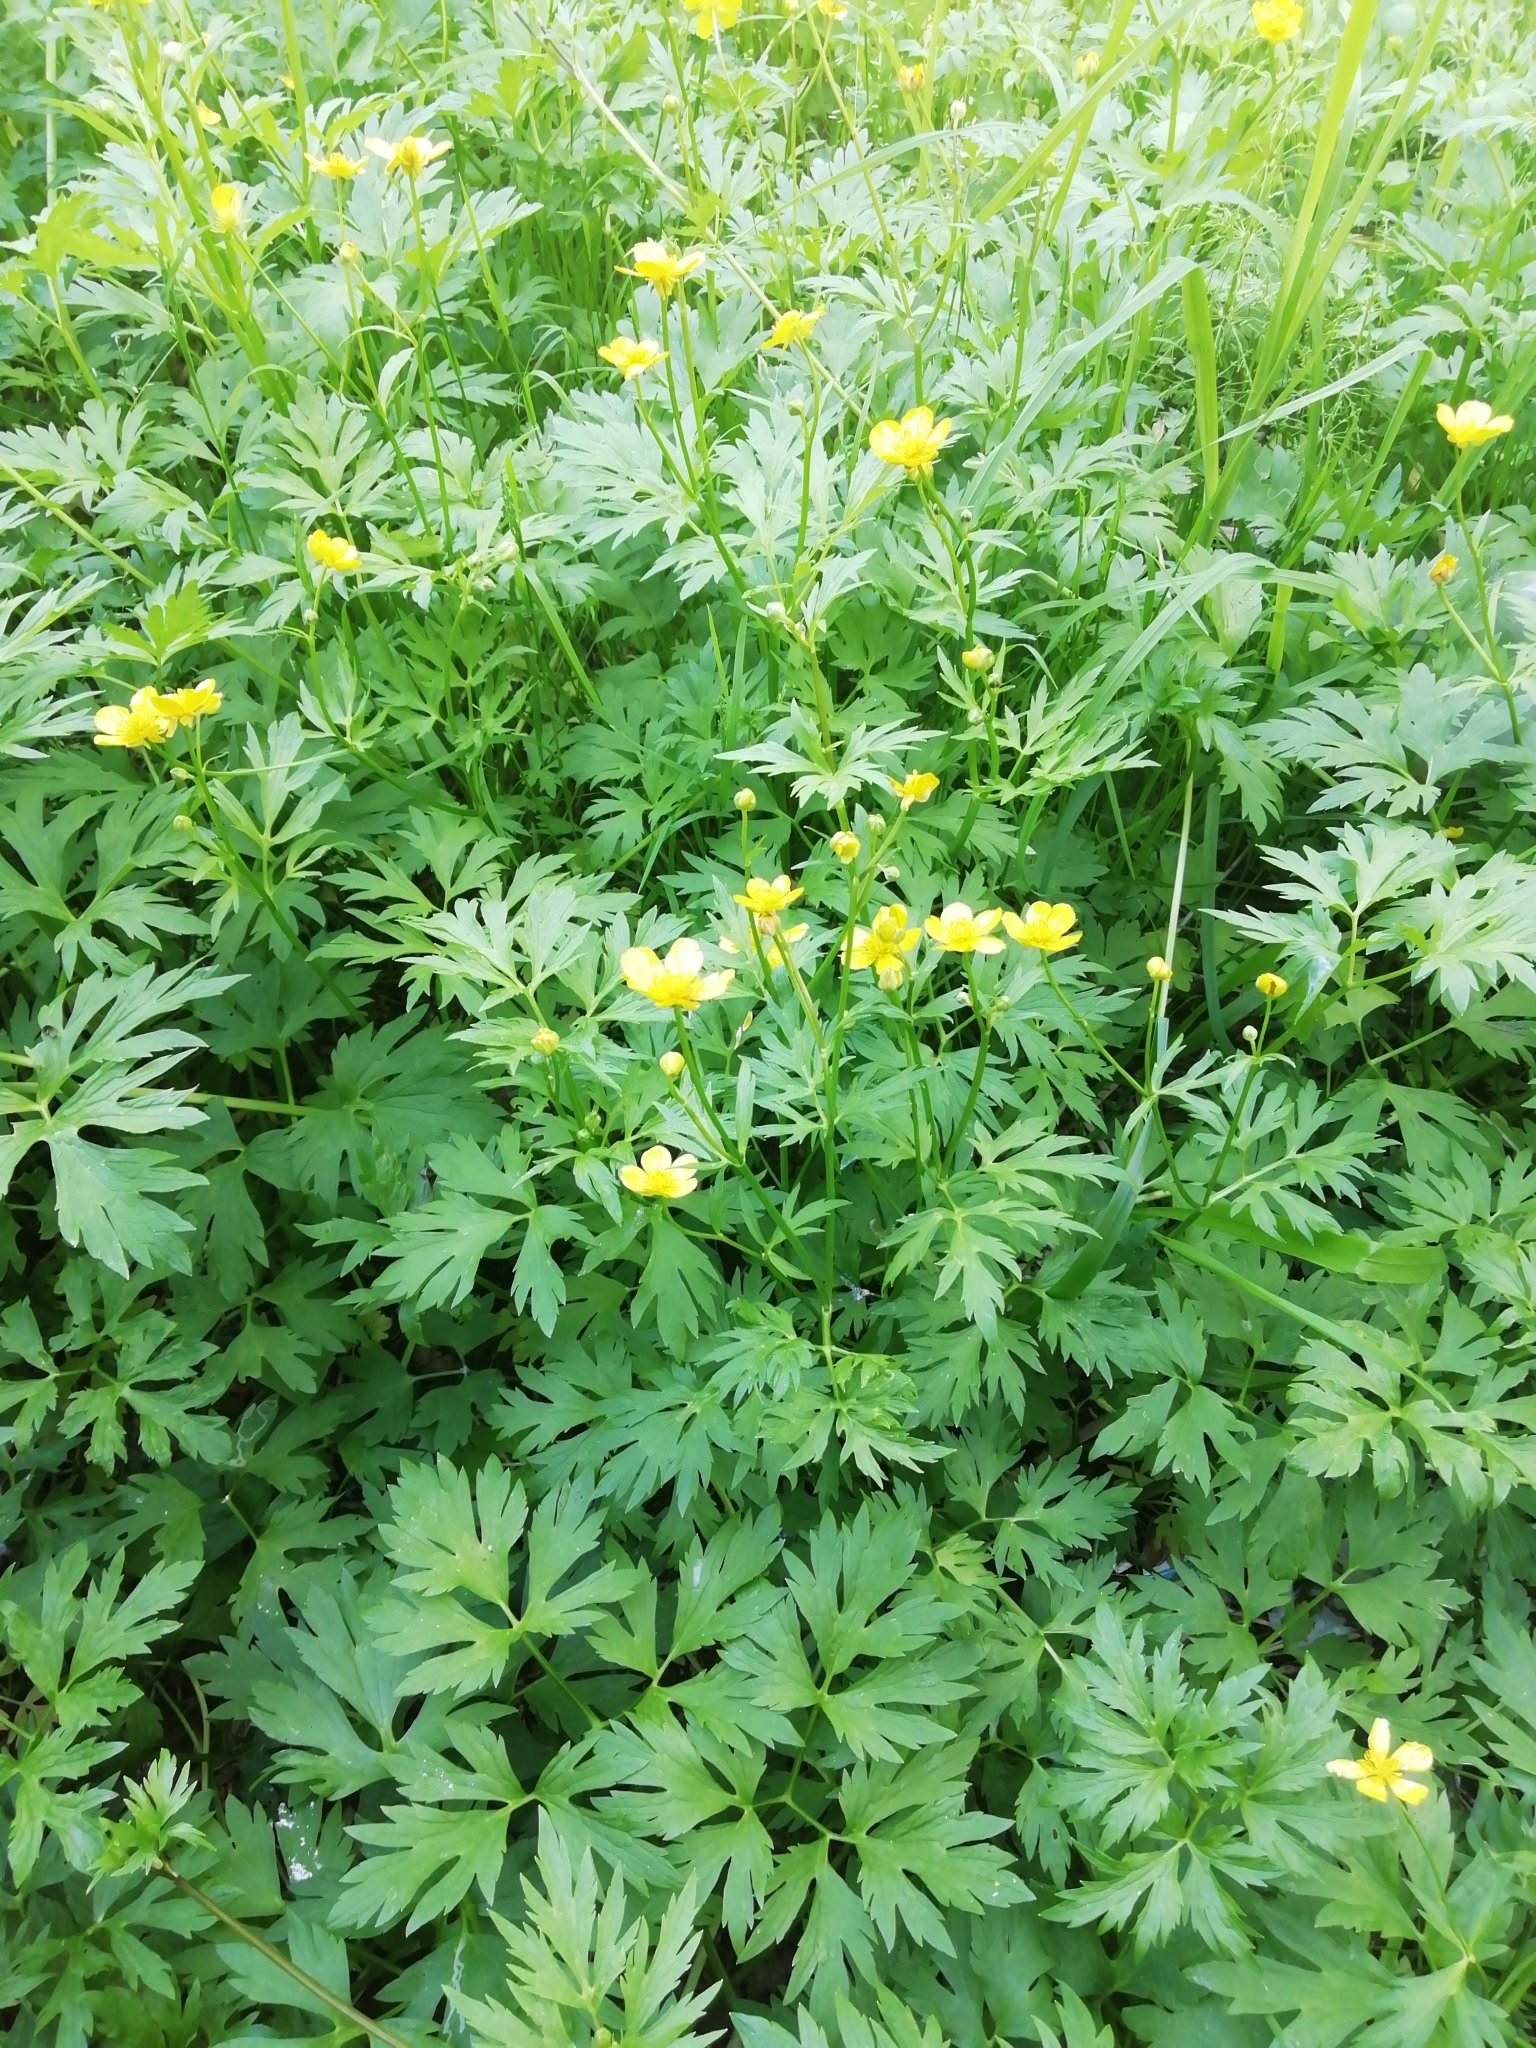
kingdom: Plantae
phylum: Tracheophyta
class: Magnoliopsida
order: Ranunculales
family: Ranunculaceae
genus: Ranunculus
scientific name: Ranunculus repens
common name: Creeping buttercup
